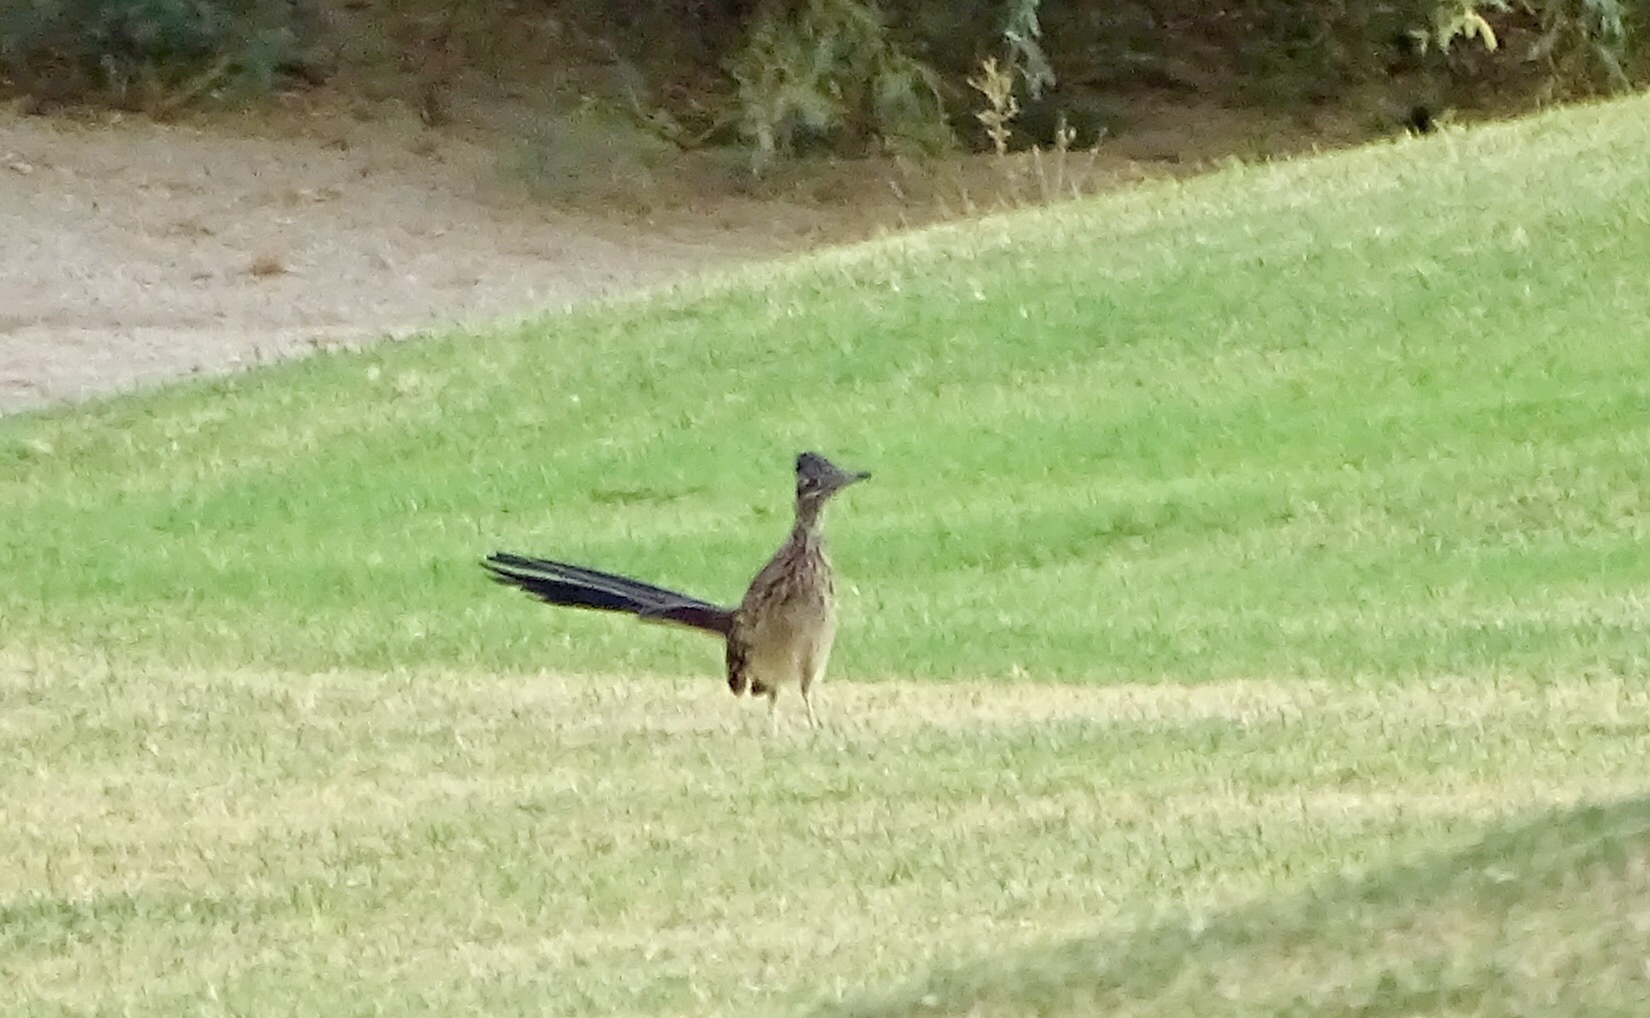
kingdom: Animalia
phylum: Chordata
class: Aves
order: Cuculiformes
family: Cuculidae
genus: Geococcyx
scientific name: Geococcyx californianus
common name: Greater roadrunner
